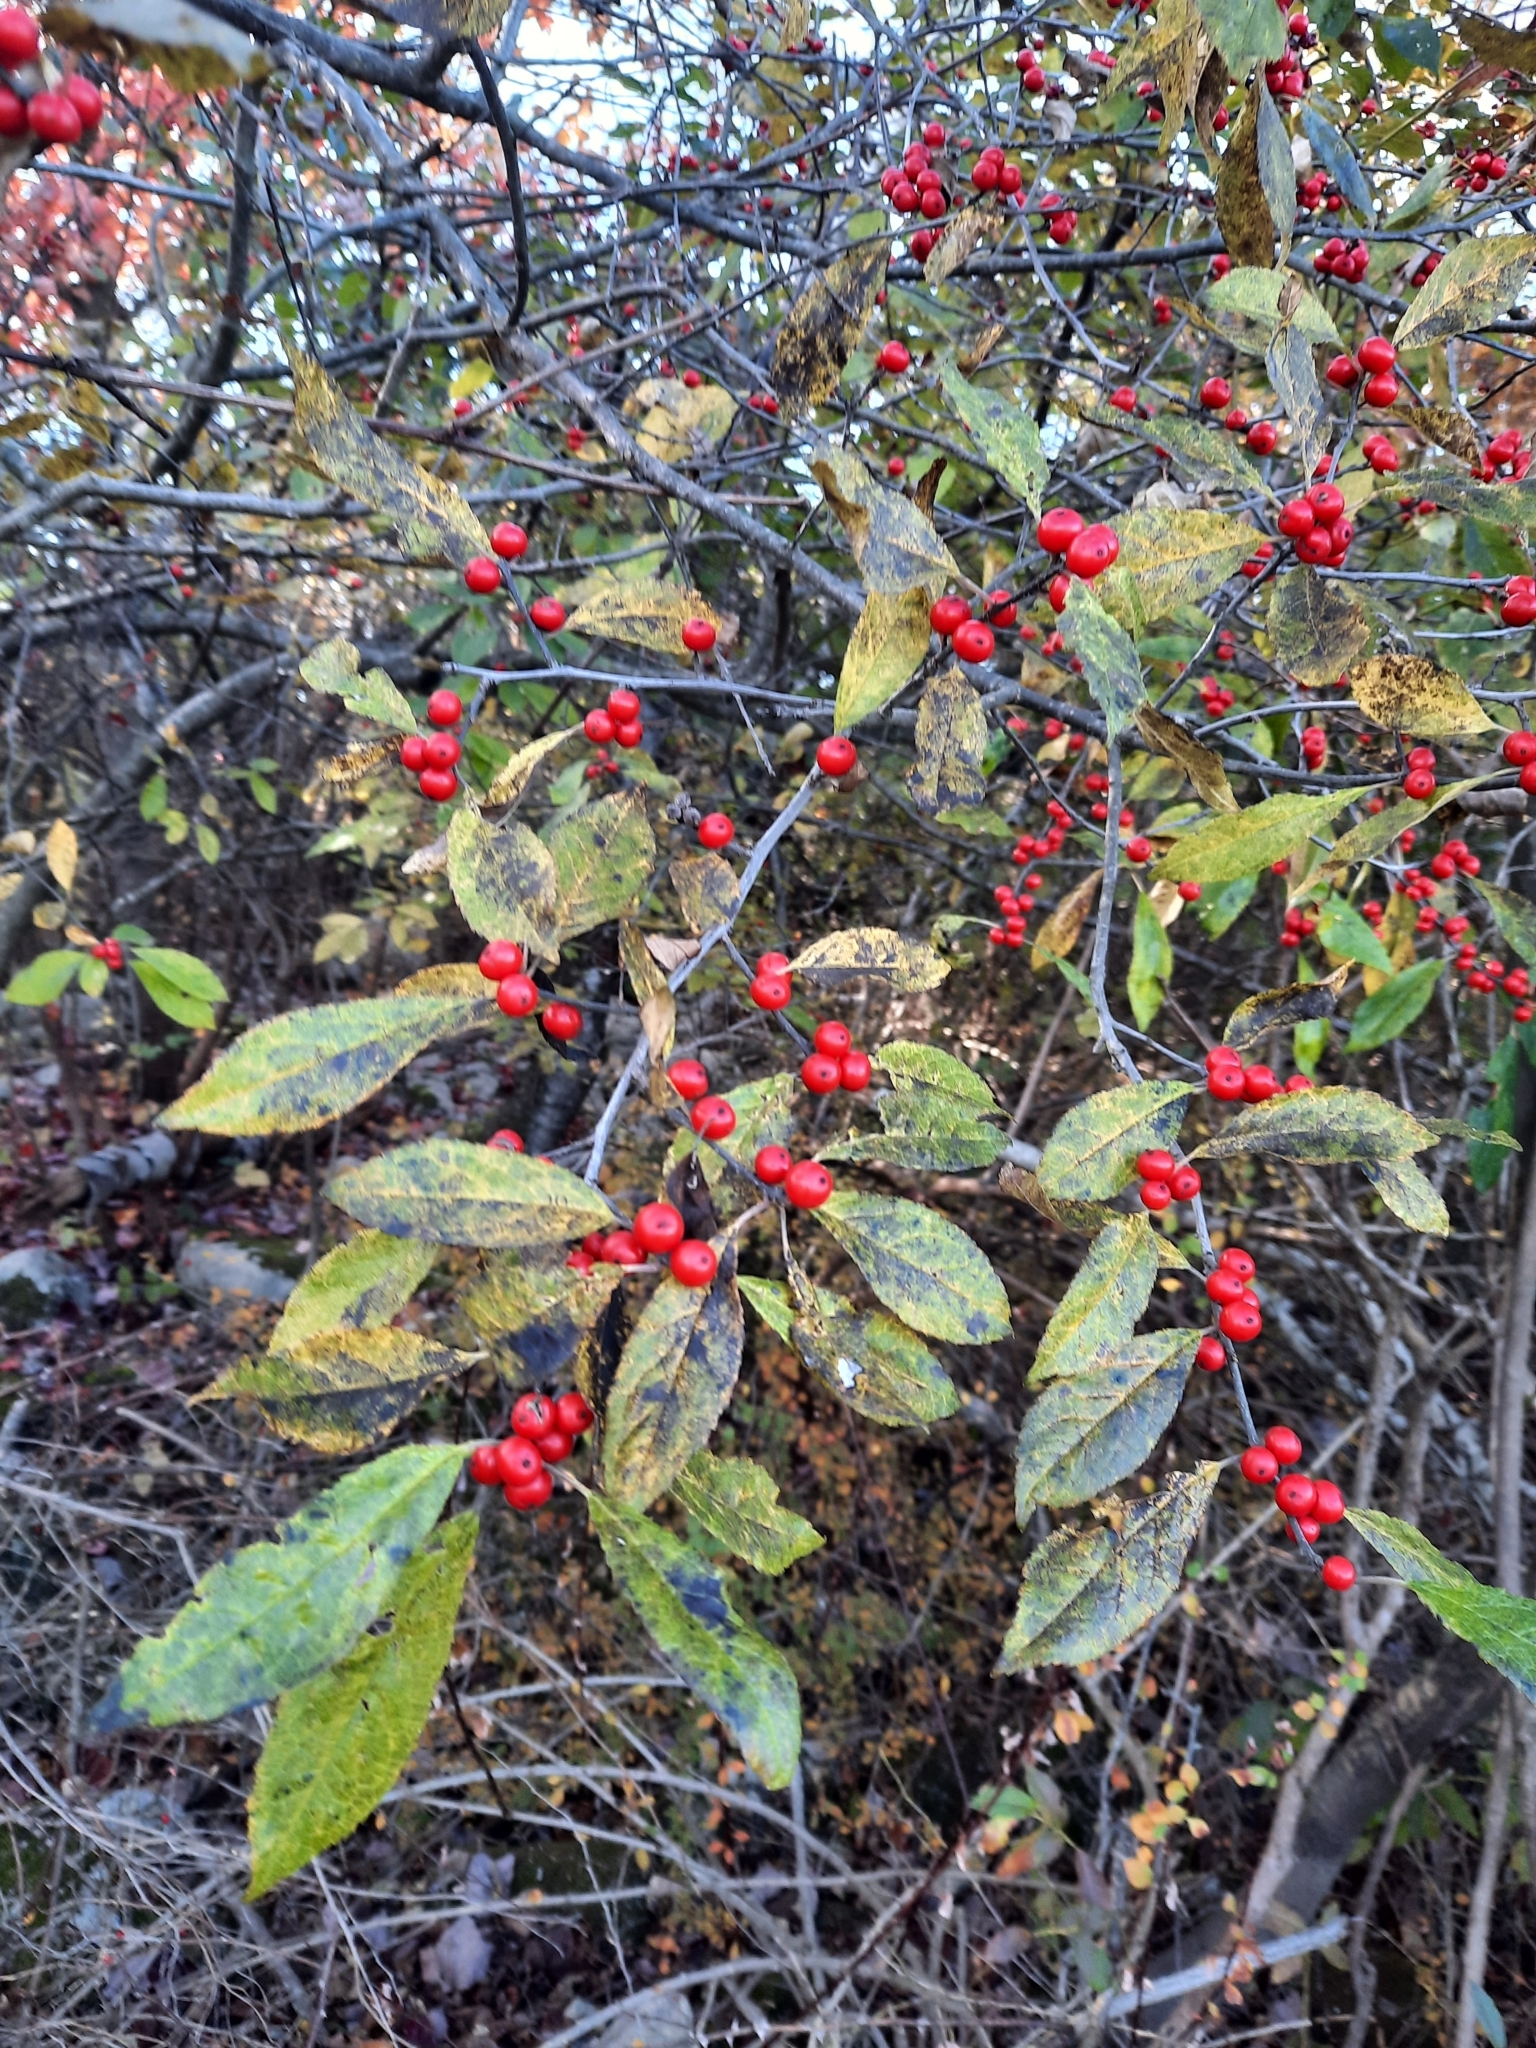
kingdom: Plantae
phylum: Tracheophyta
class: Magnoliopsida
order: Aquifoliales
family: Aquifoliaceae
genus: Ilex
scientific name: Ilex verticillata
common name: Virginia winterberry
